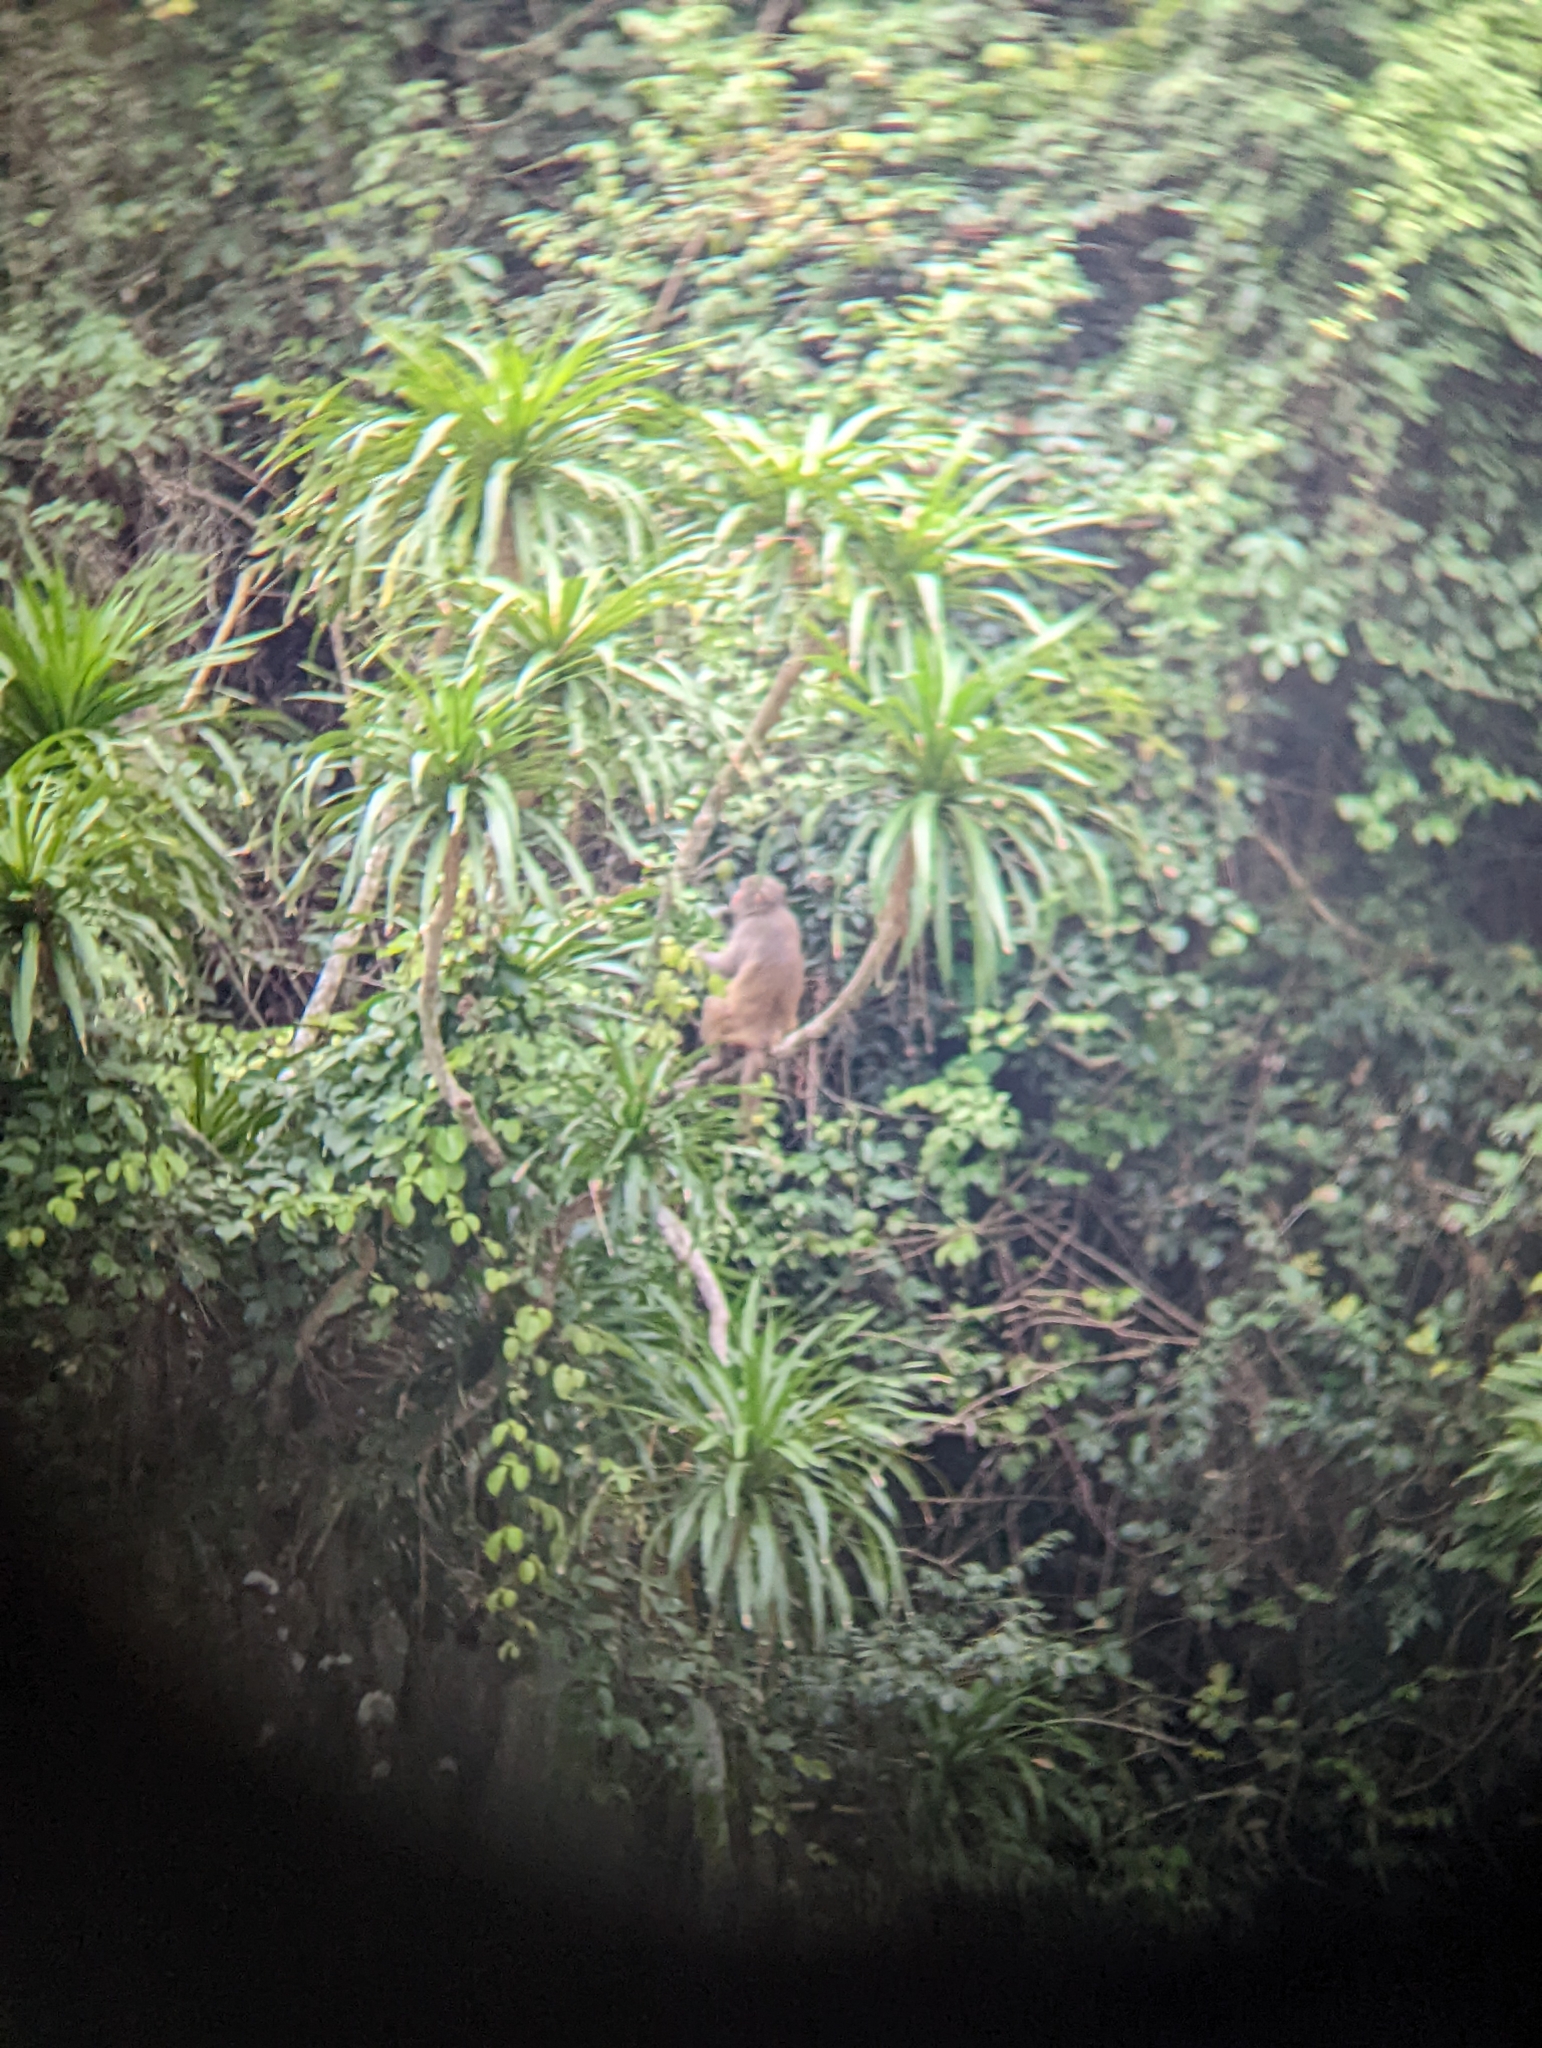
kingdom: Animalia
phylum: Chordata
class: Mammalia
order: Primates
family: Cercopithecidae
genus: Macaca
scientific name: Macaca mulatta
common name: Rhesus monkey
